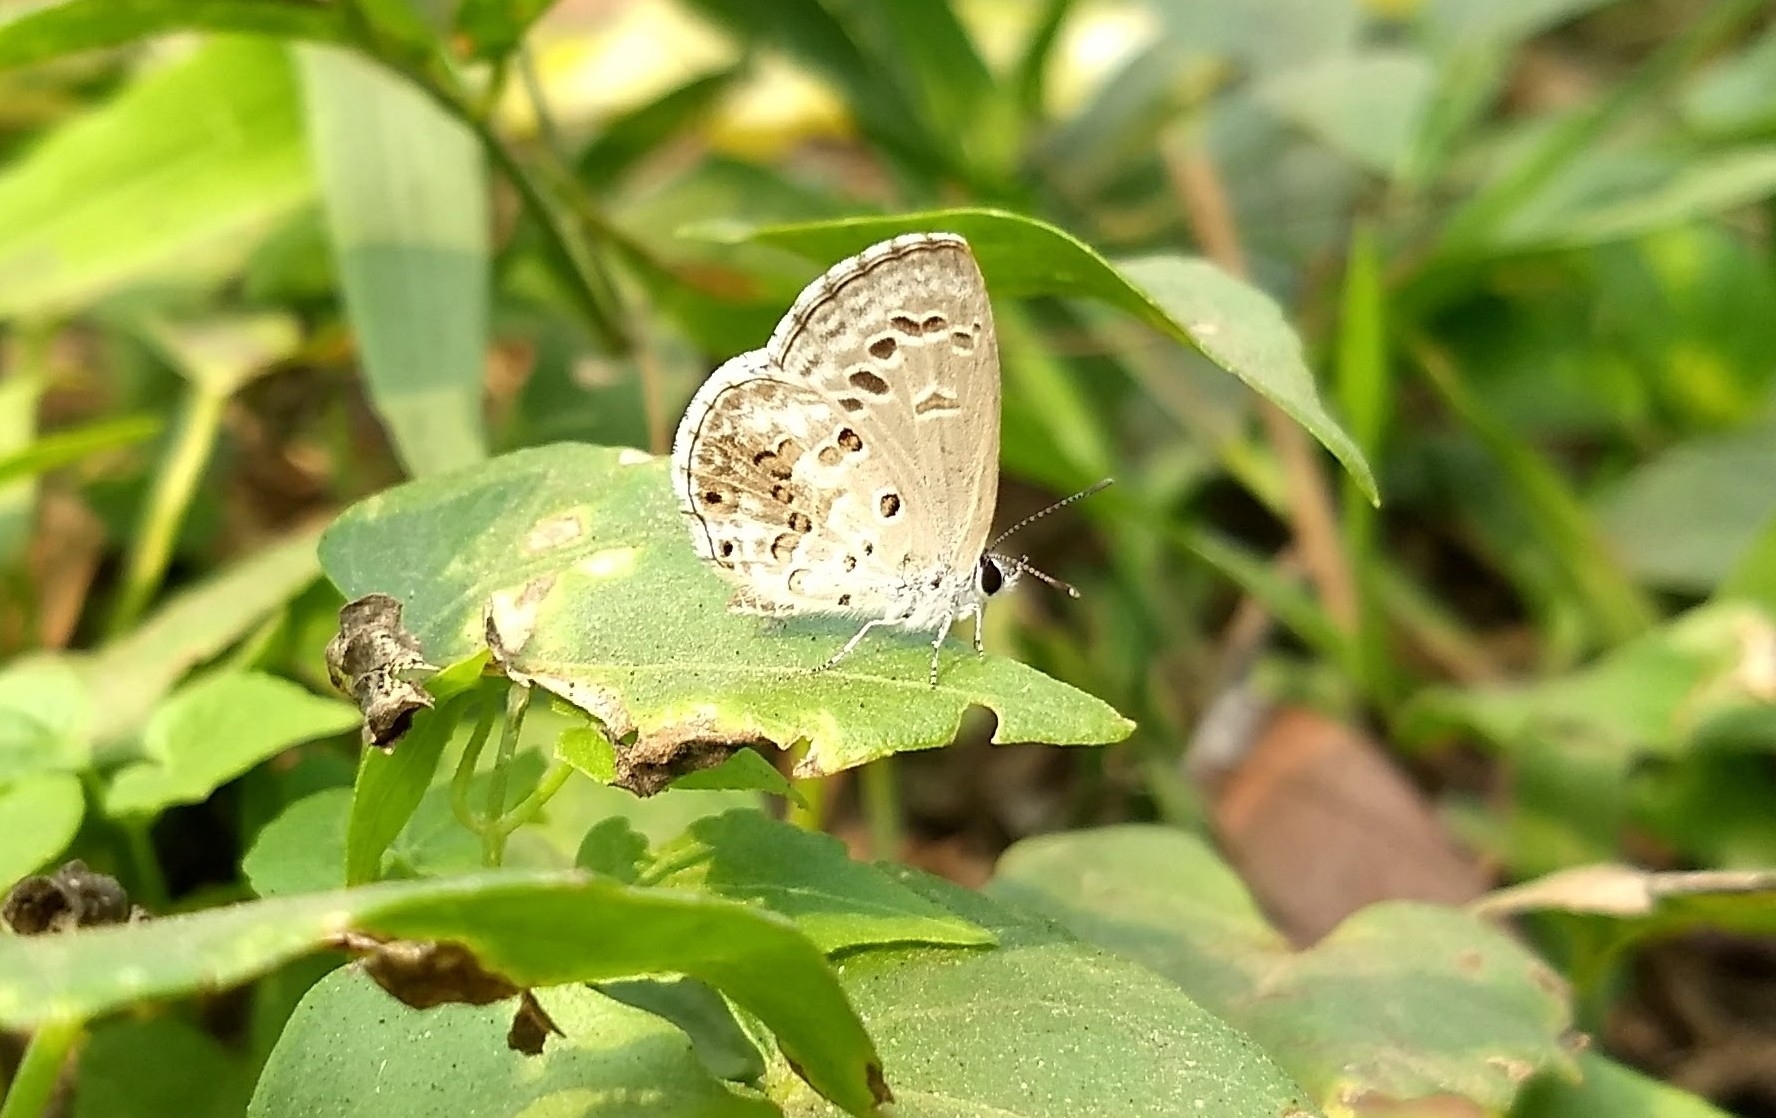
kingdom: Animalia
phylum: Arthropoda
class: Insecta
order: Lepidoptera
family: Lycaenidae
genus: Chilades
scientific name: Chilades laius
